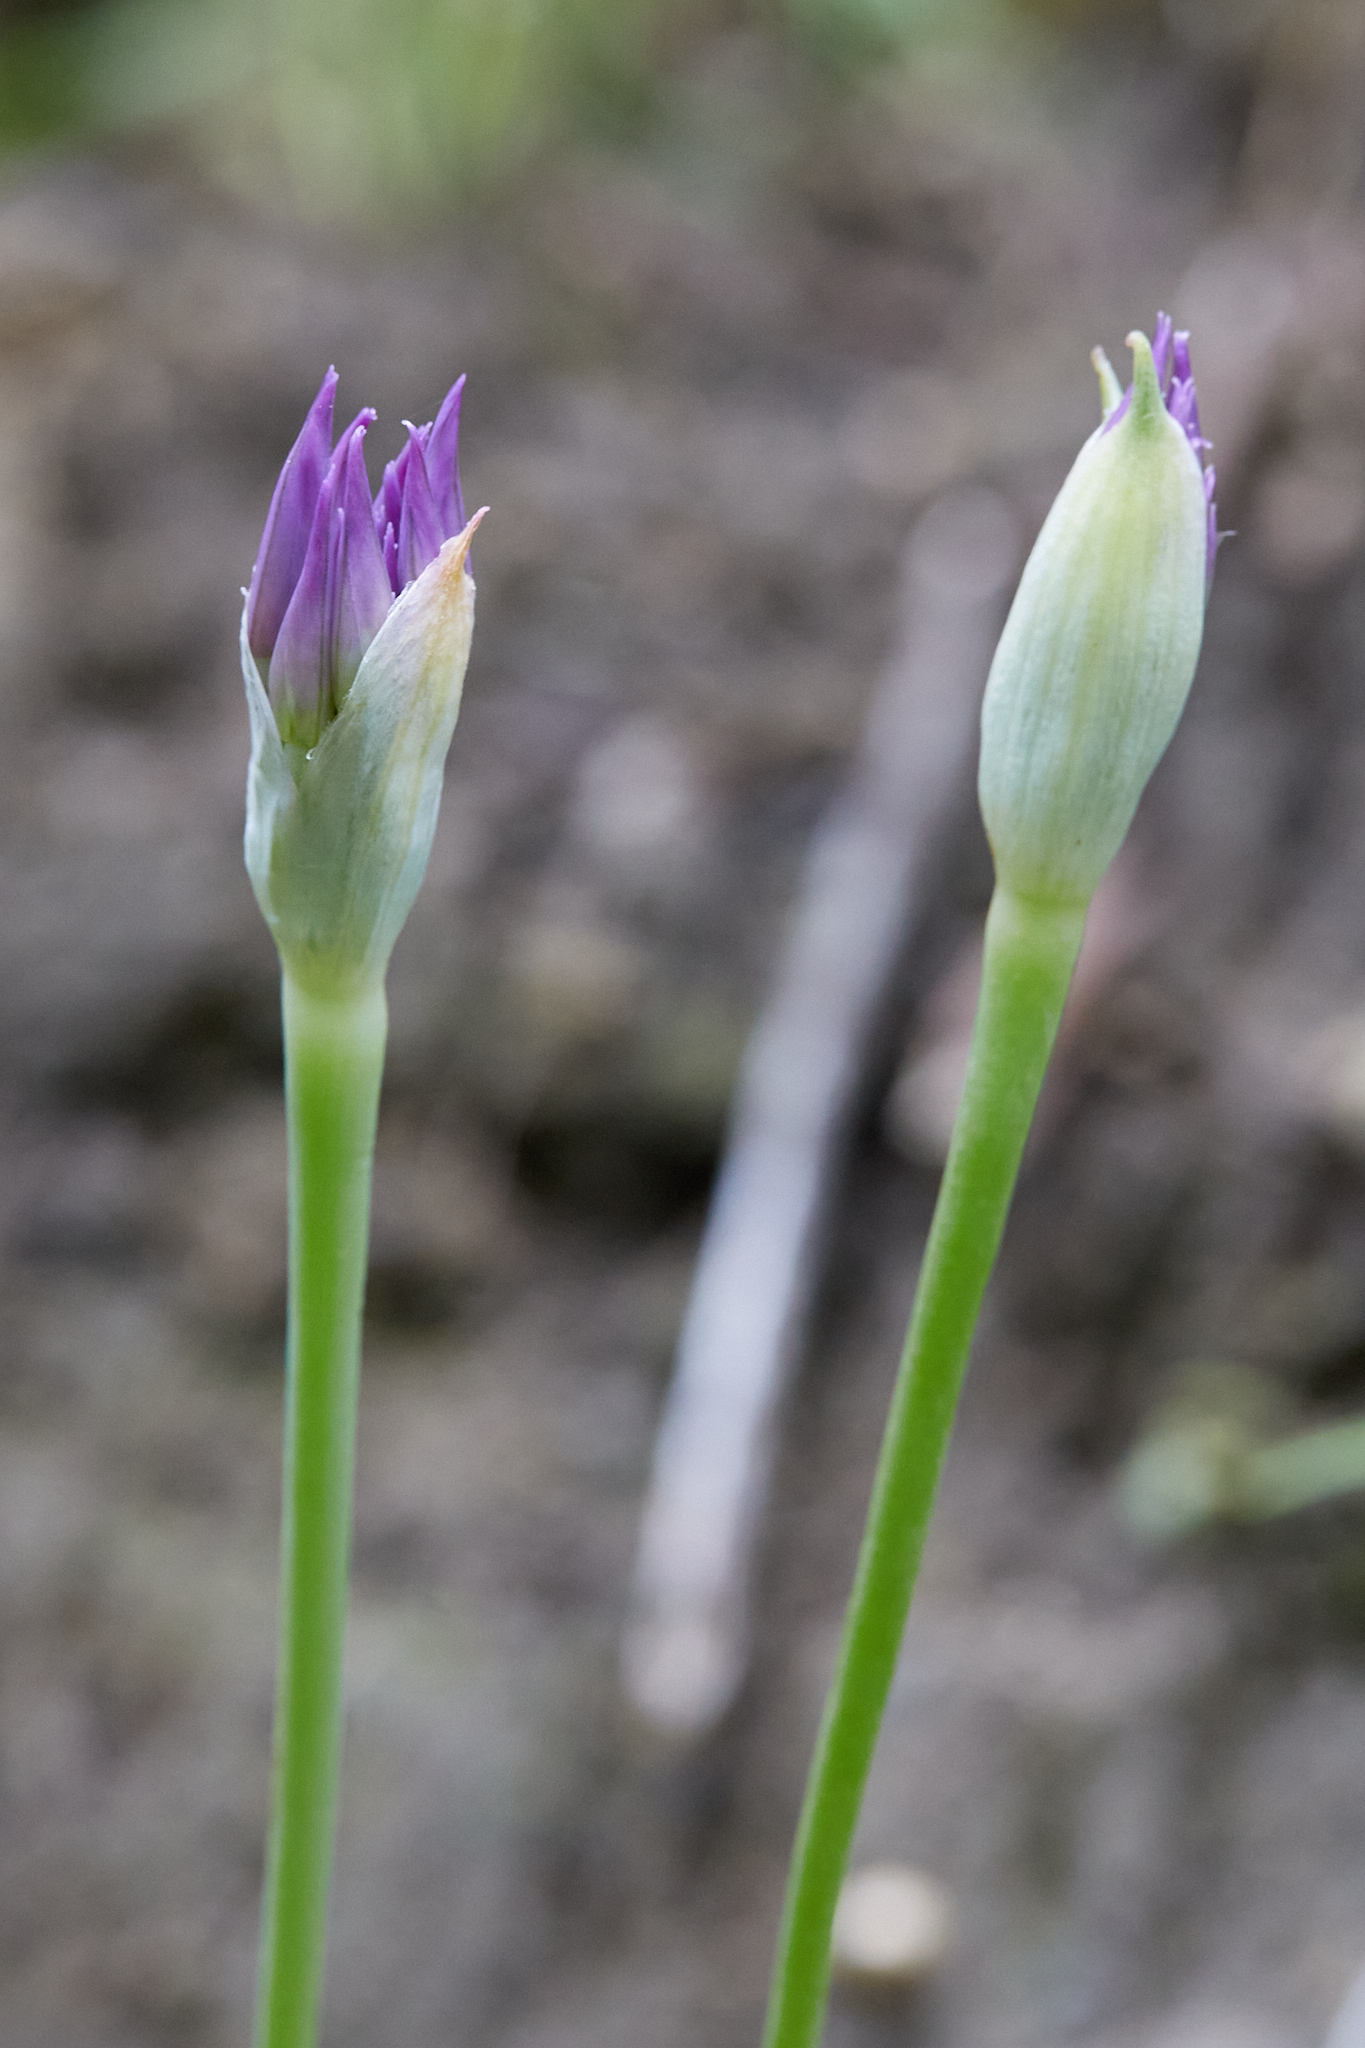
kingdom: Plantae
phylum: Tracheophyta
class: Liliopsida
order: Asparagales
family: Amaryllidaceae
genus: Allium
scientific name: Allium acuminatum
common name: Hooker's onion
